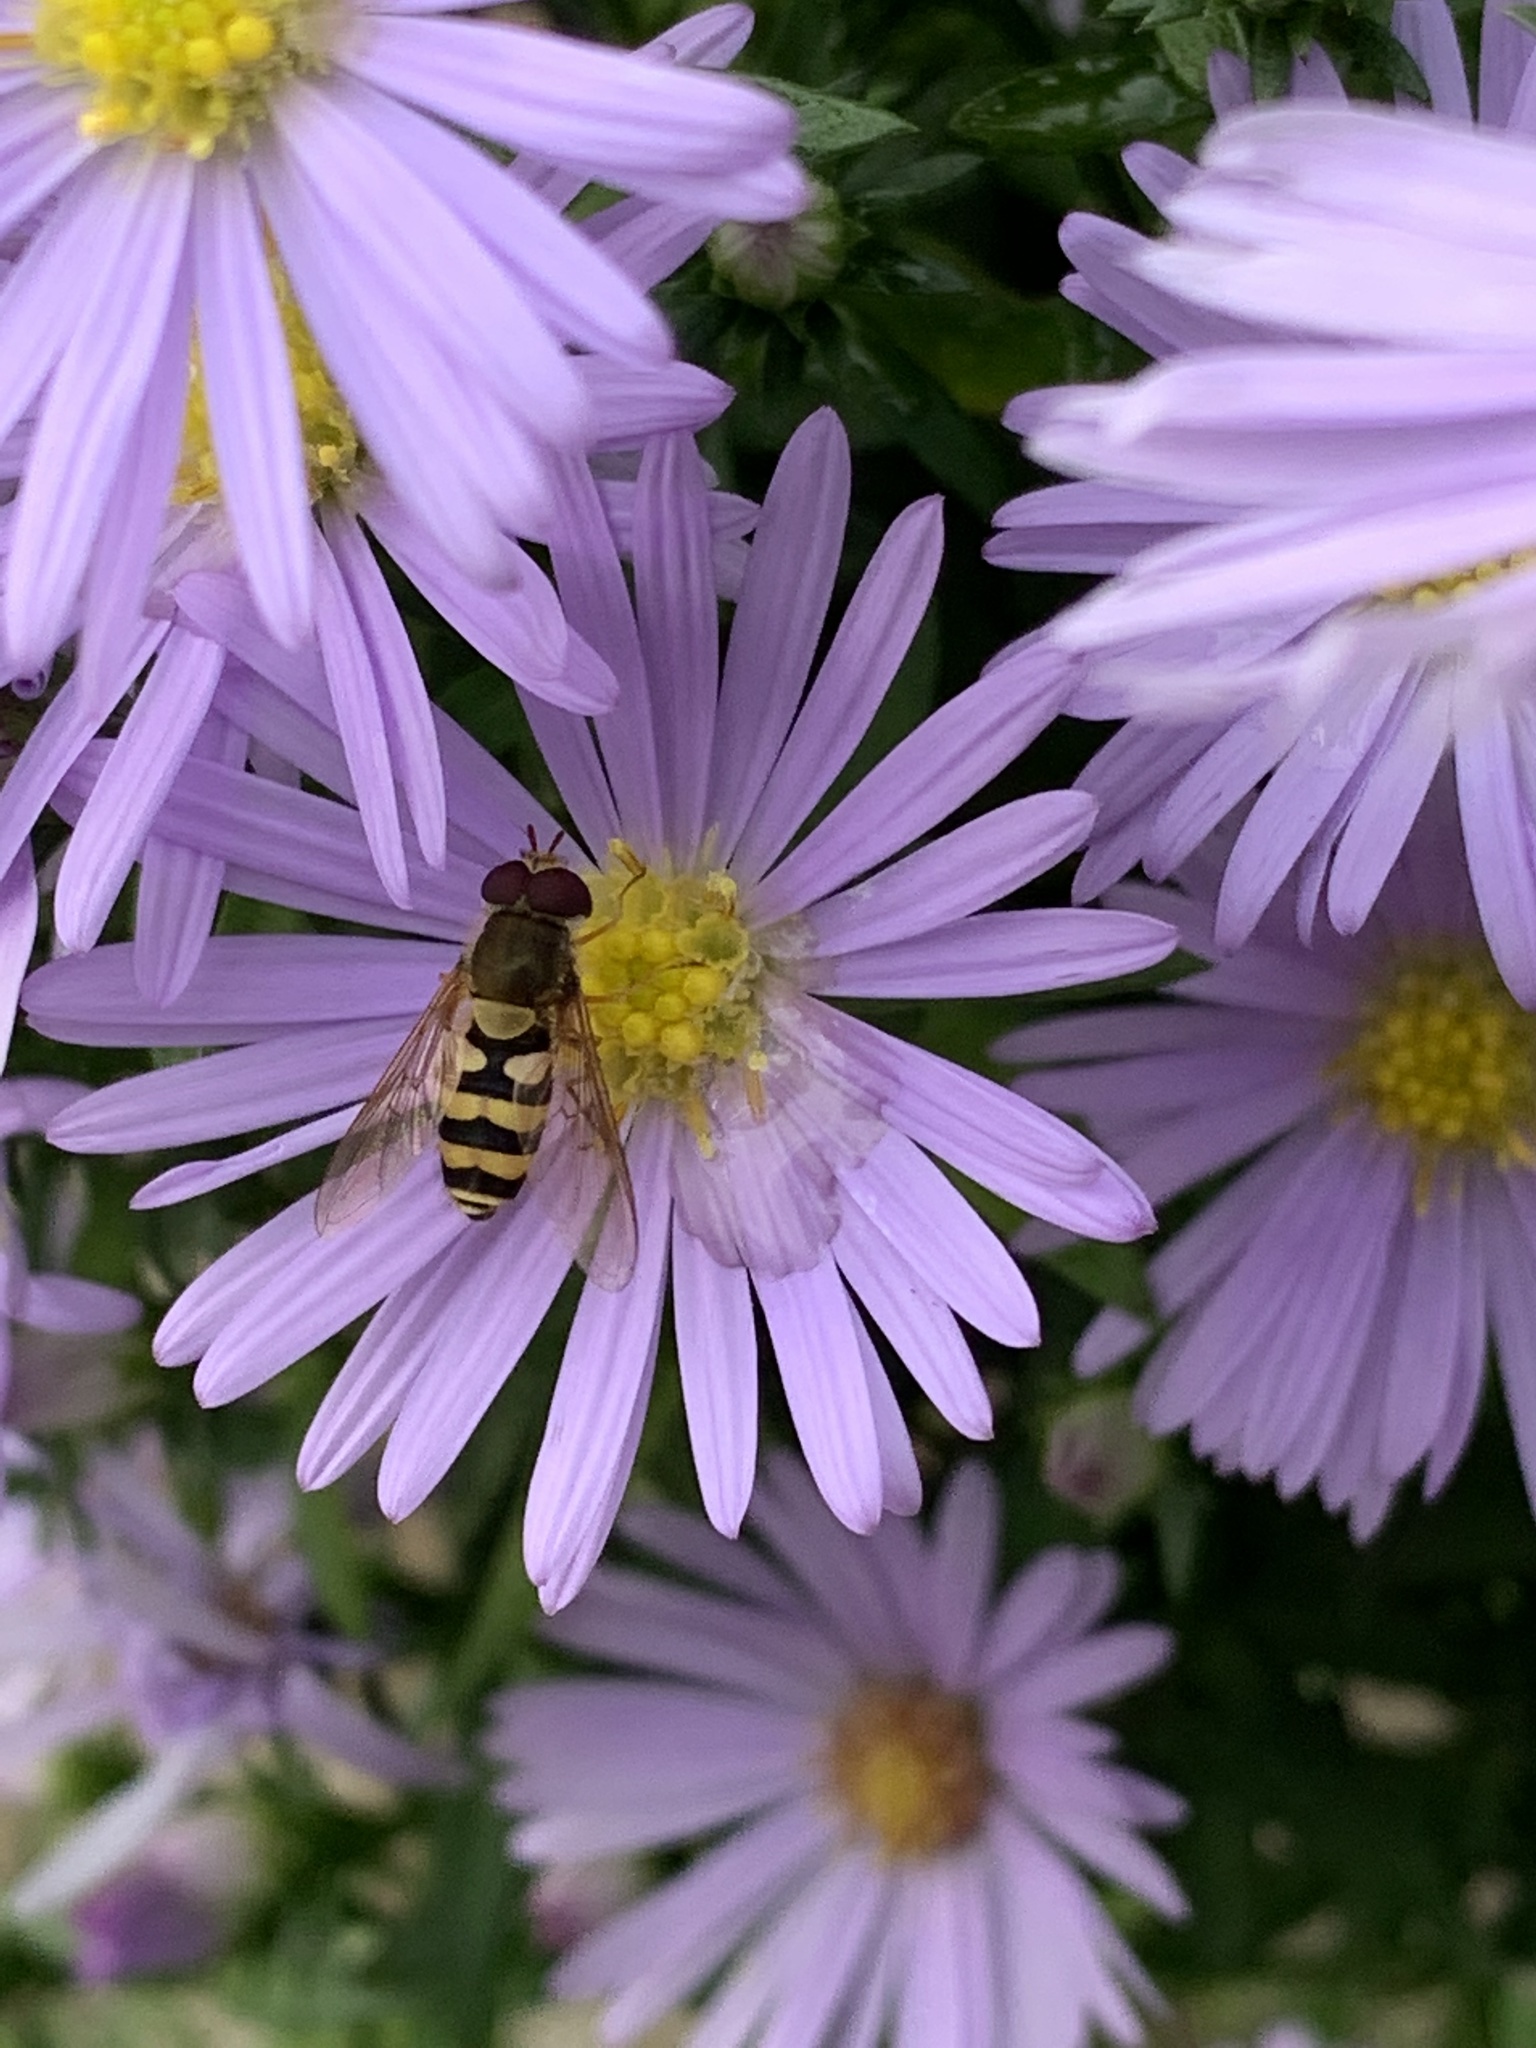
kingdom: Animalia
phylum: Arthropoda
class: Insecta
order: Diptera
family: Syrphidae
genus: Syrphus
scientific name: Syrphus
